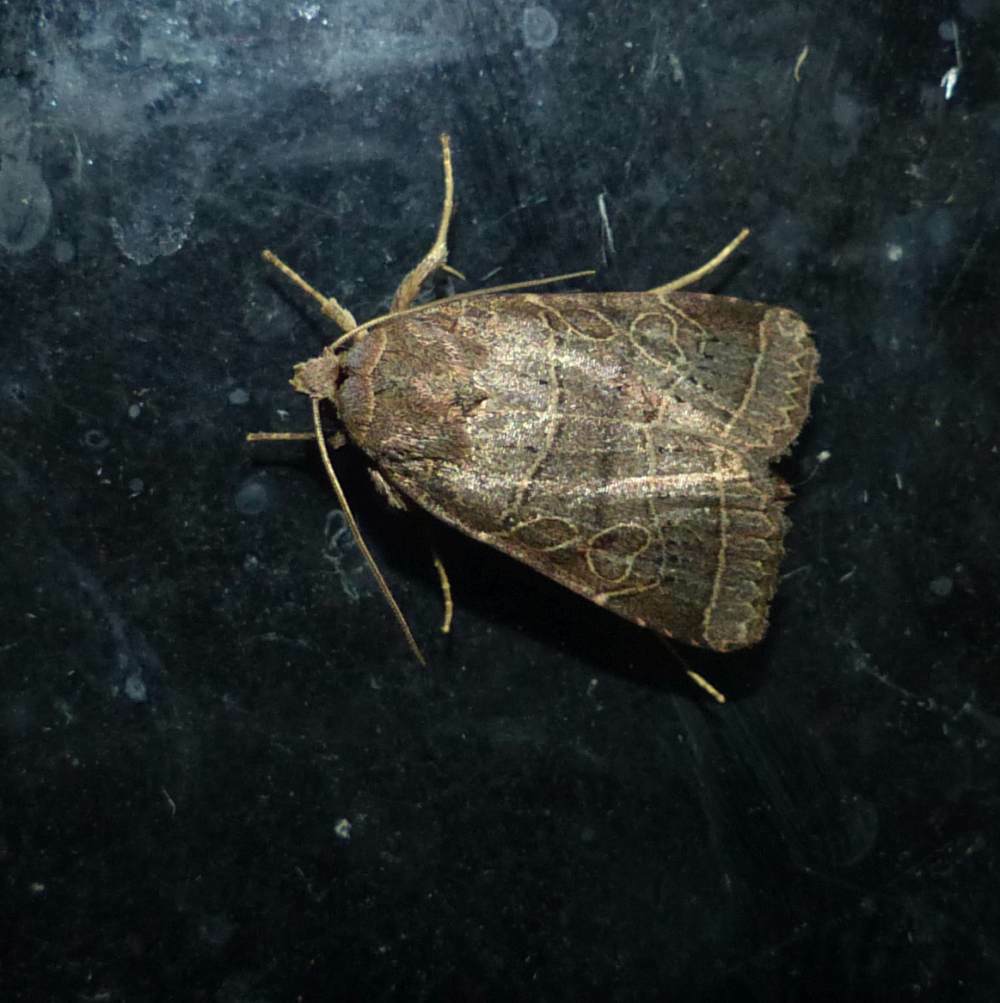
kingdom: Animalia
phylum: Arthropoda
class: Insecta
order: Lepidoptera
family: Noctuidae
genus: Orthodes
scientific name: Orthodes majuscula
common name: Rustic quaker
